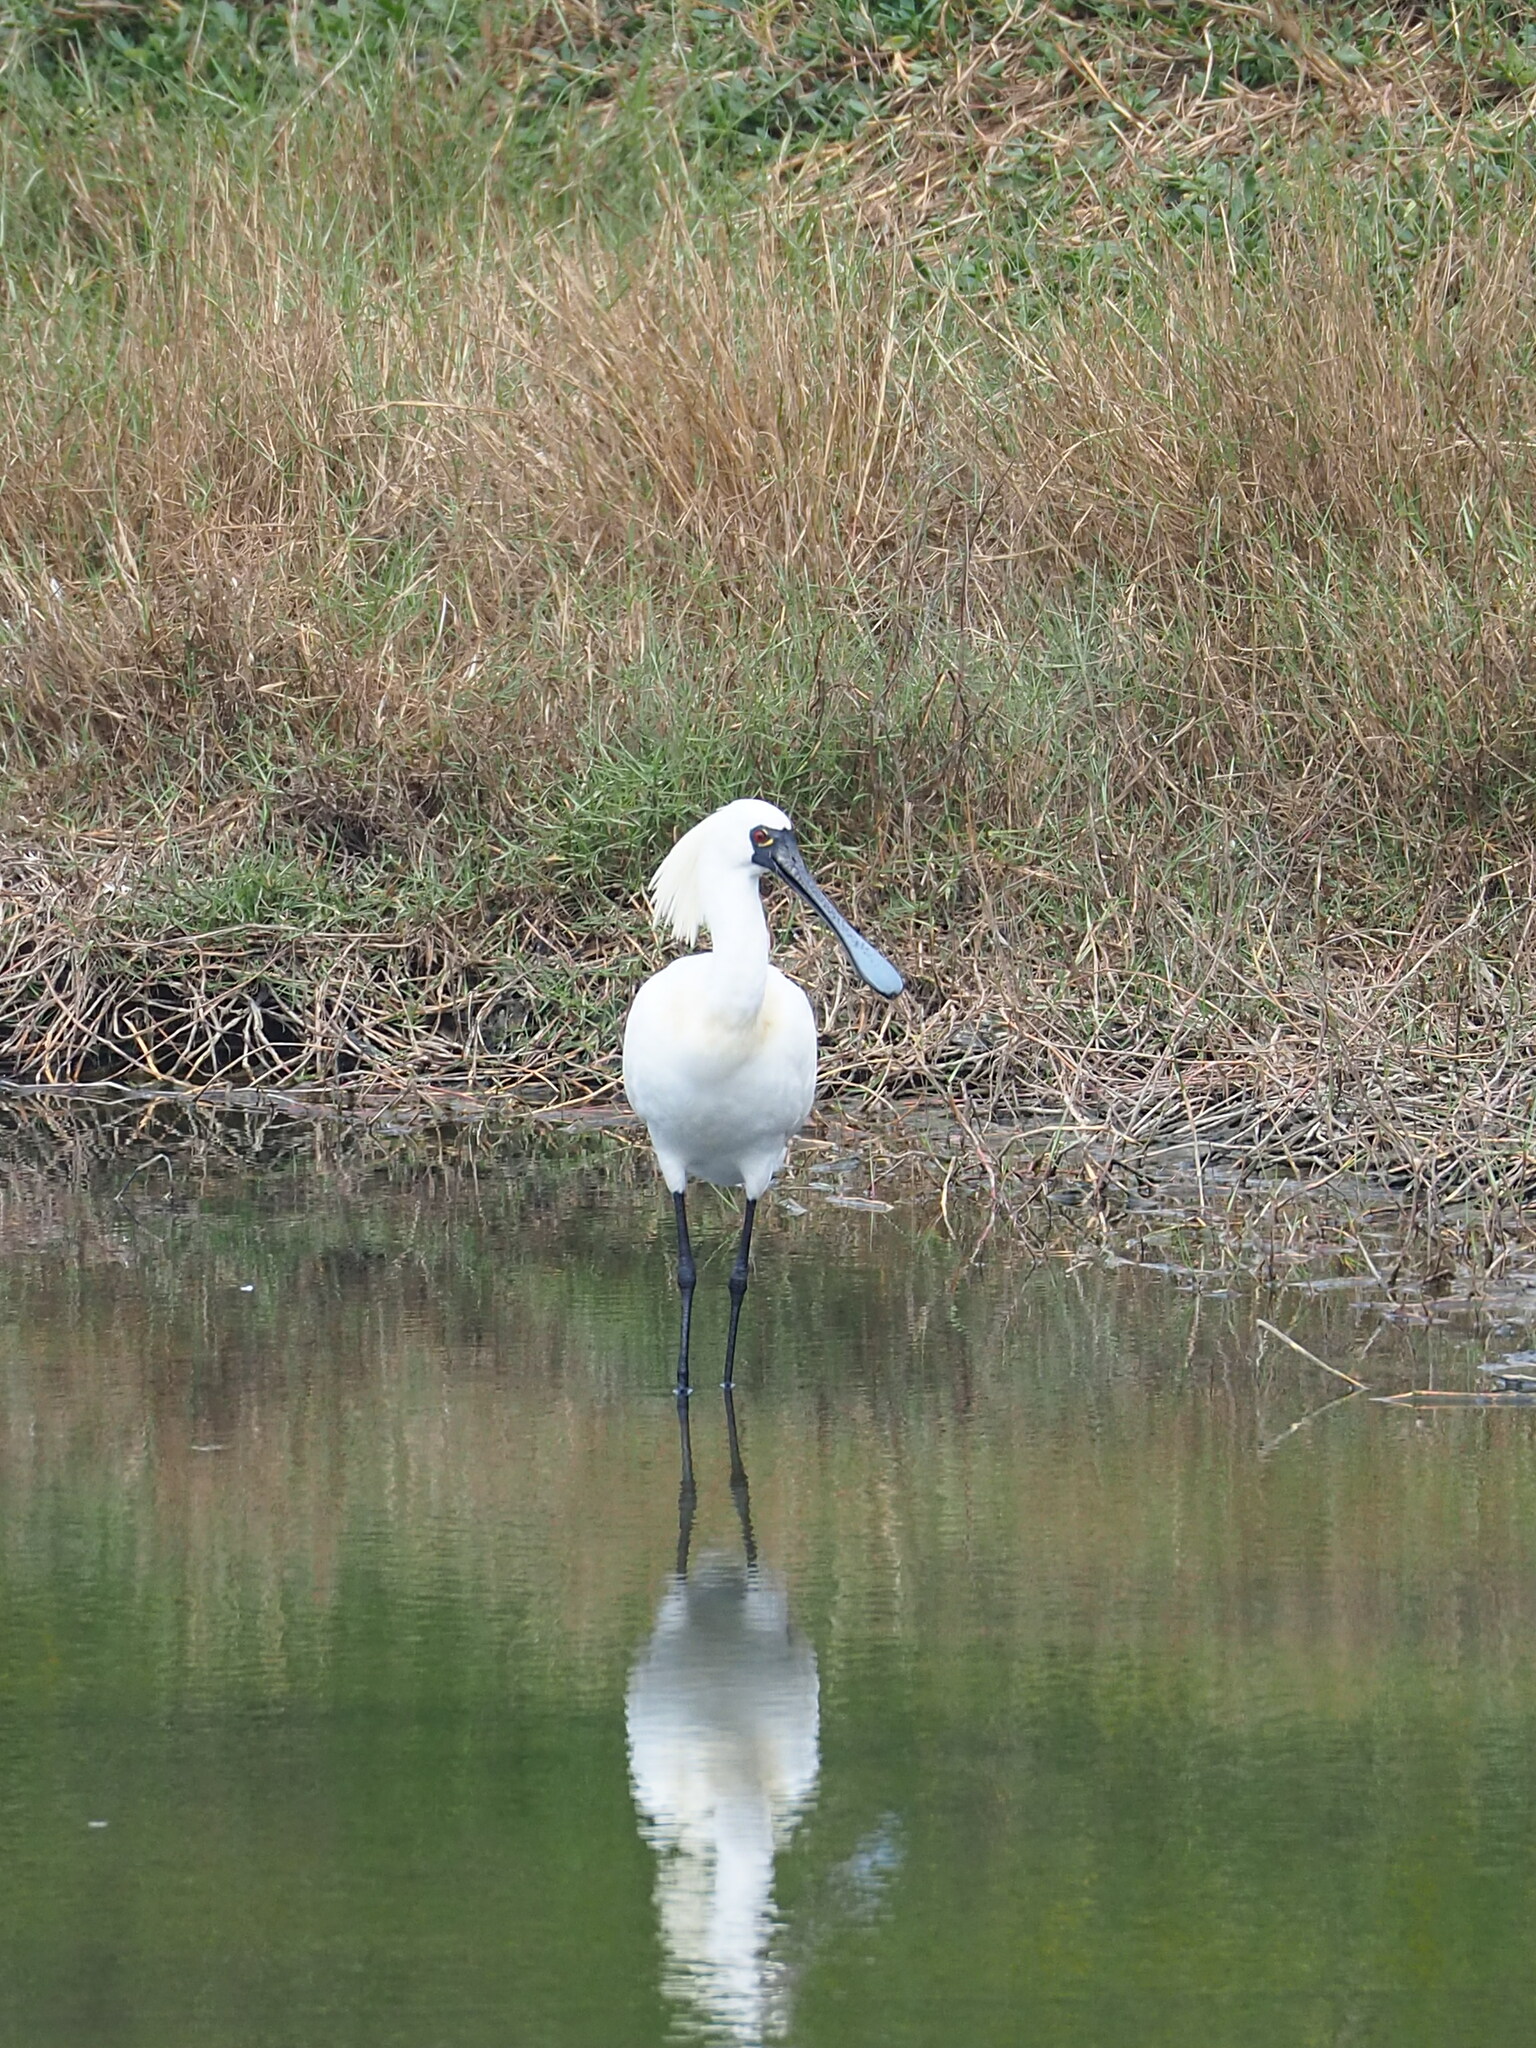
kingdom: Animalia
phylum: Chordata
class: Aves
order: Pelecaniformes
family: Threskiornithidae
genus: Platalea
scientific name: Platalea minor
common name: Black-faced spoonbill
